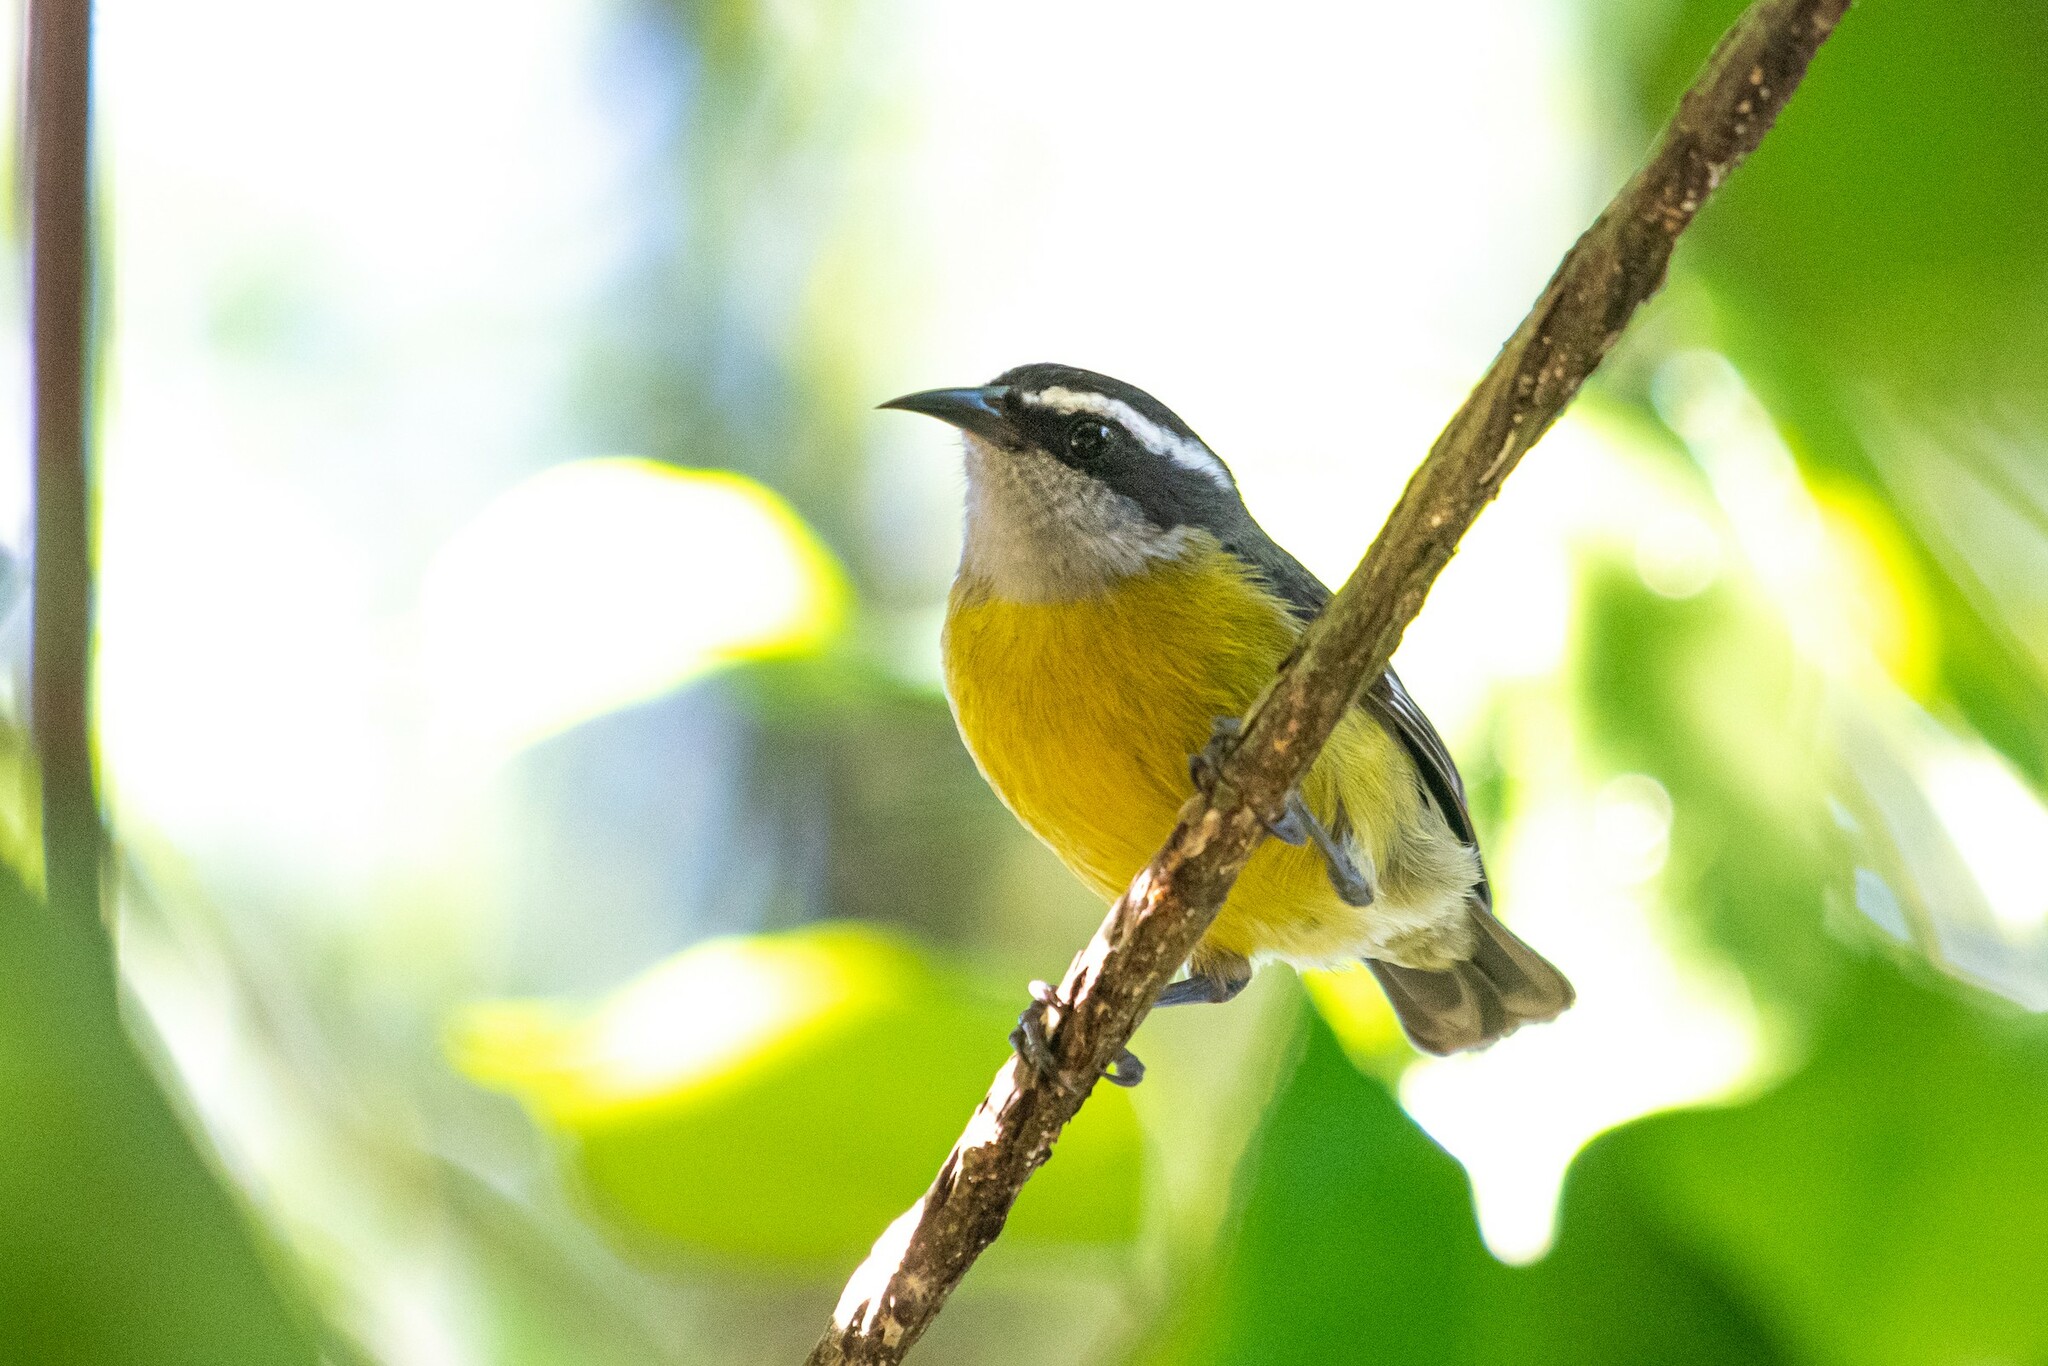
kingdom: Animalia
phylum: Chordata
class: Aves
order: Passeriformes
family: Thraupidae
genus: Coereba
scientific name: Coereba flaveola
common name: Bananaquit
